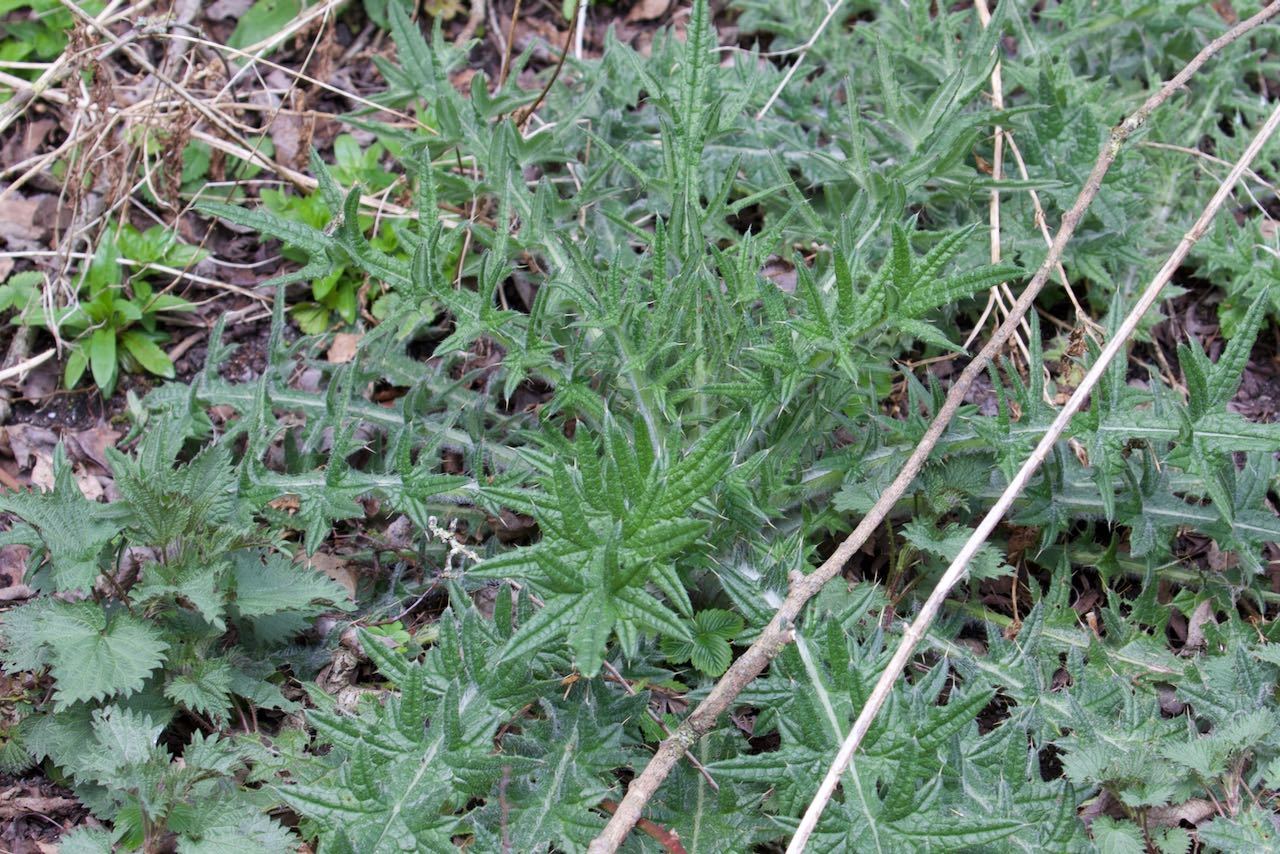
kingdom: Plantae
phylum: Tracheophyta
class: Magnoliopsida
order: Asterales
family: Asteraceae
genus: Cirsium
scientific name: Cirsium vulgare
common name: Bull thistle
